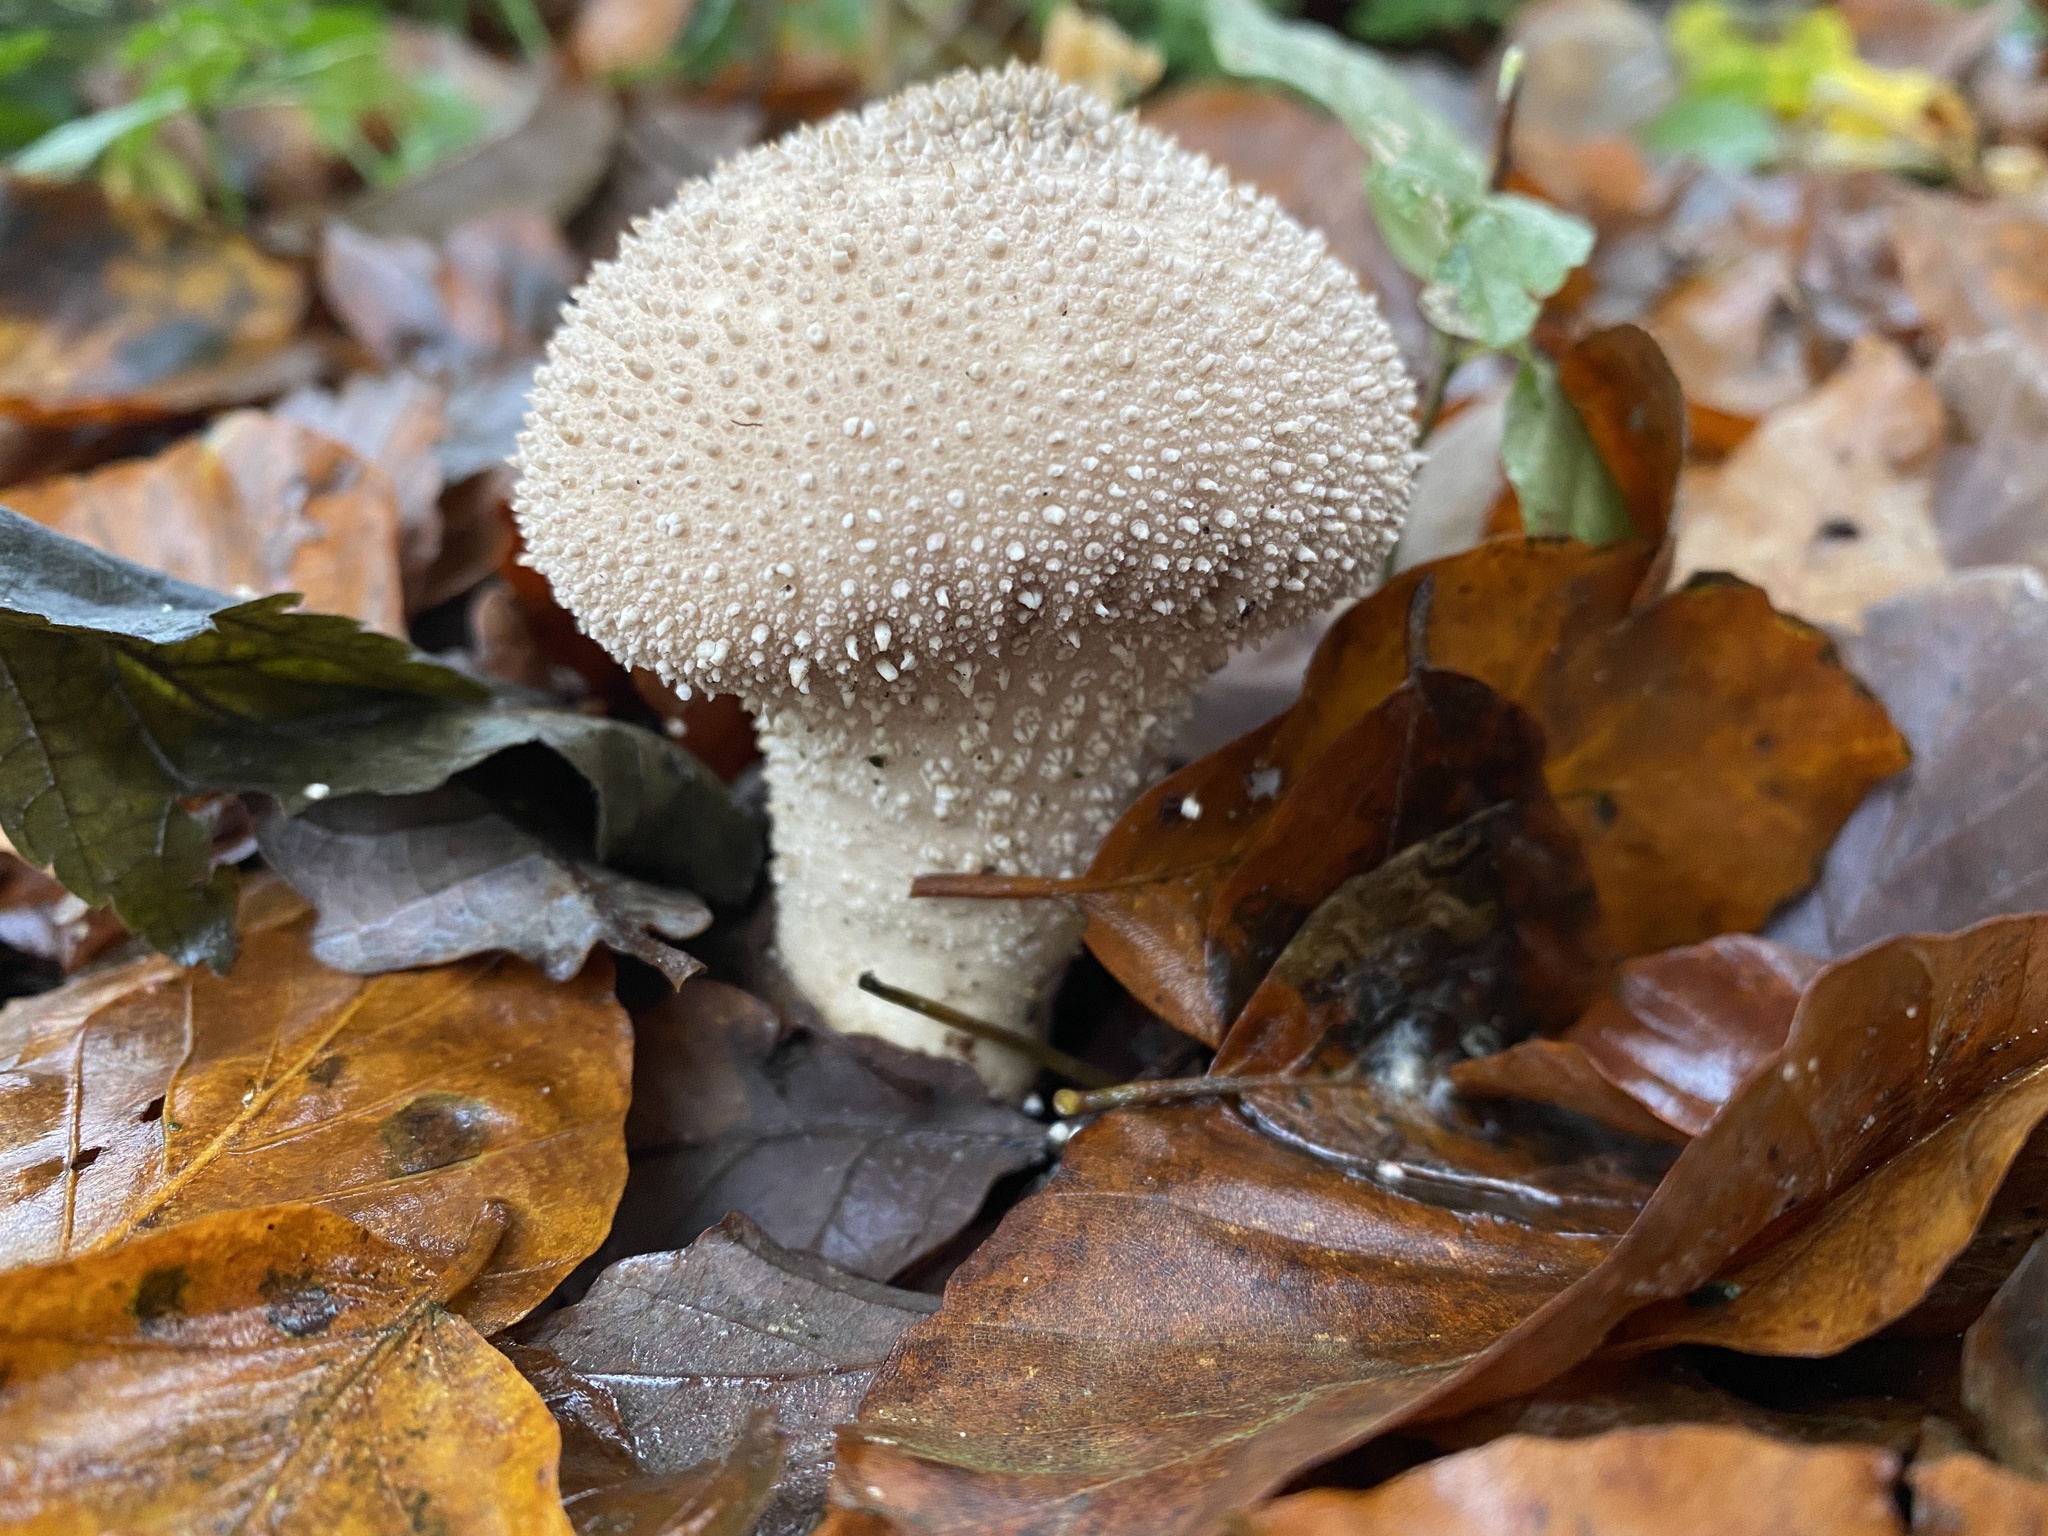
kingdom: Fungi
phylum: Basidiomycota
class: Agaricomycetes
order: Agaricales
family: Lycoperdaceae
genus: Lycoperdon
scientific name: Lycoperdon perlatum
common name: Common puffball
